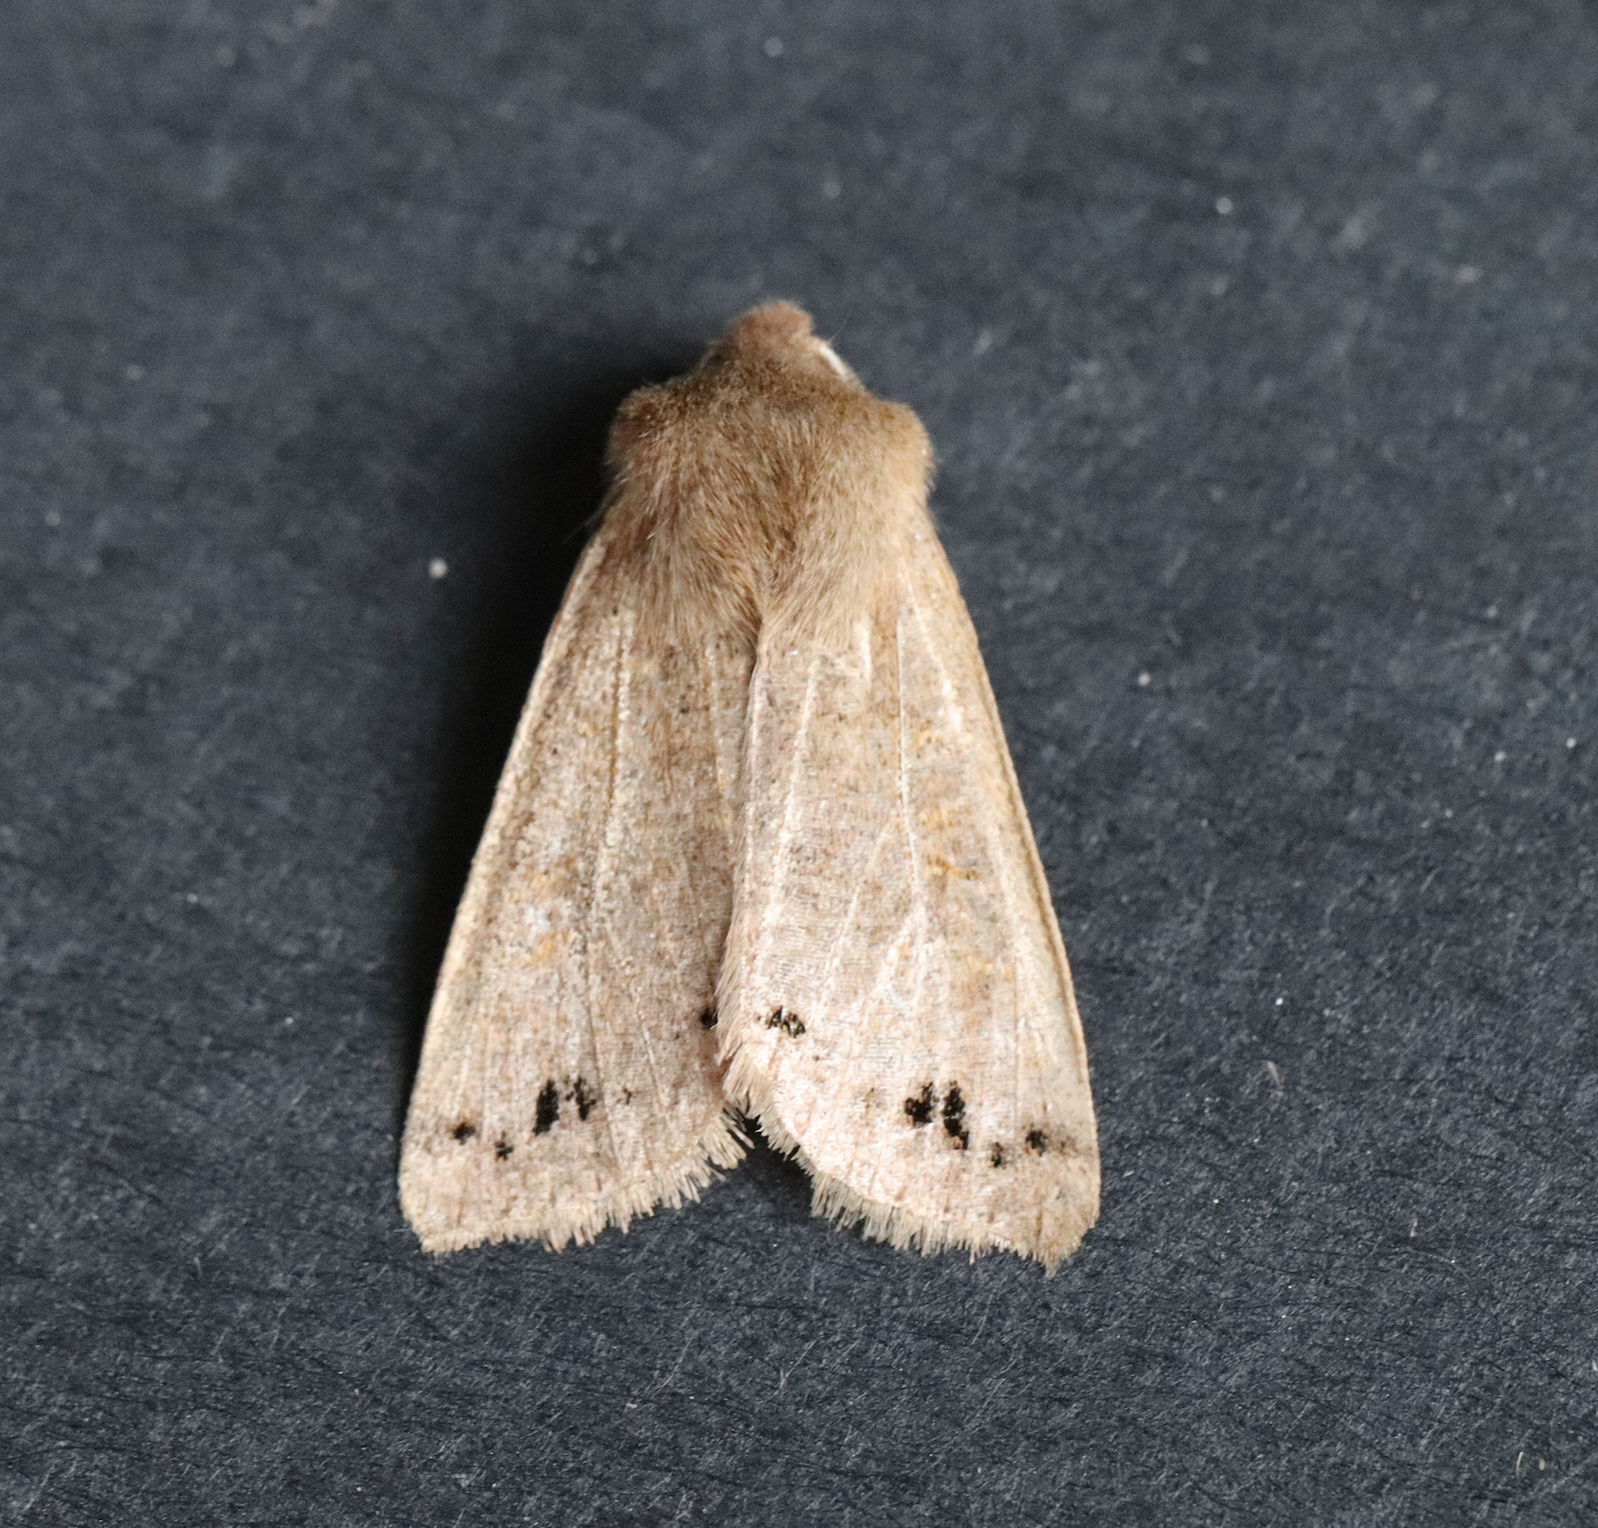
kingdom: Animalia
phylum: Arthropoda
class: Insecta
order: Lepidoptera
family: Noctuidae
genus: Anorthoa
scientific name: Anorthoa munda
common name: Twin-spotted quaker
